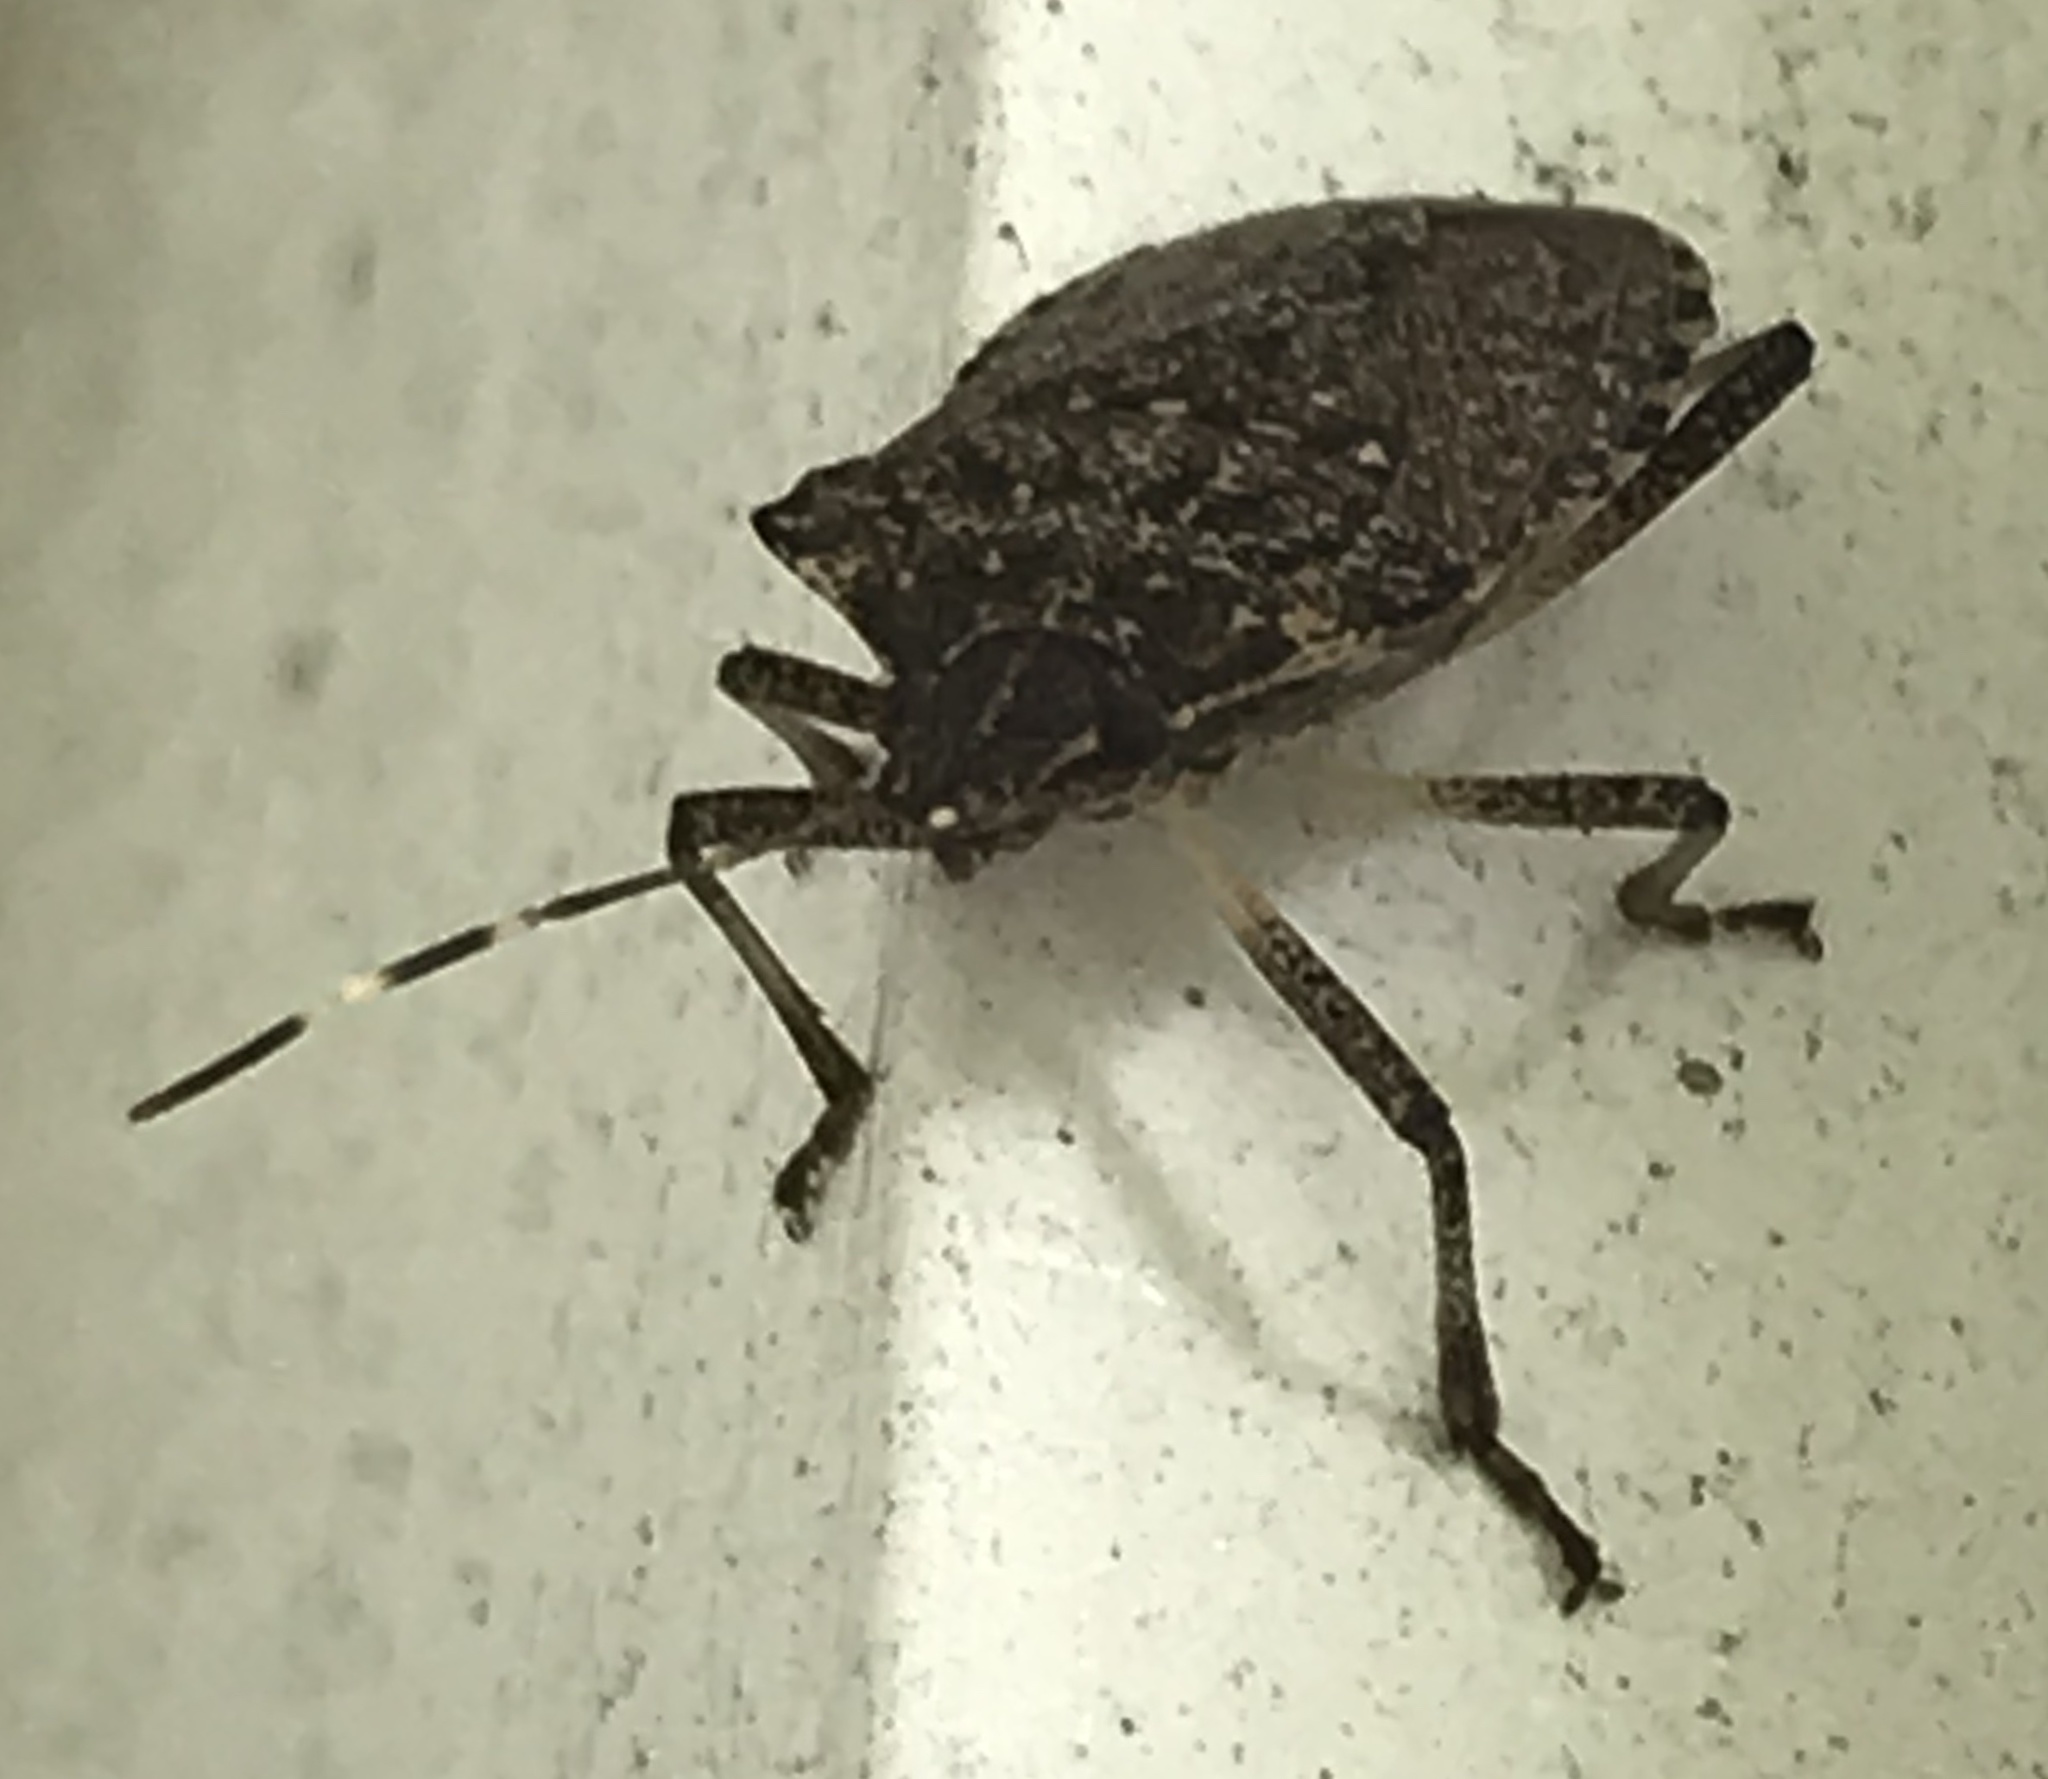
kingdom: Animalia
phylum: Arthropoda
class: Insecta
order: Hemiptera
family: Pentatomidae
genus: Halyomorpha
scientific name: Halyomorpha halys
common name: Brown marmorated stink bug
